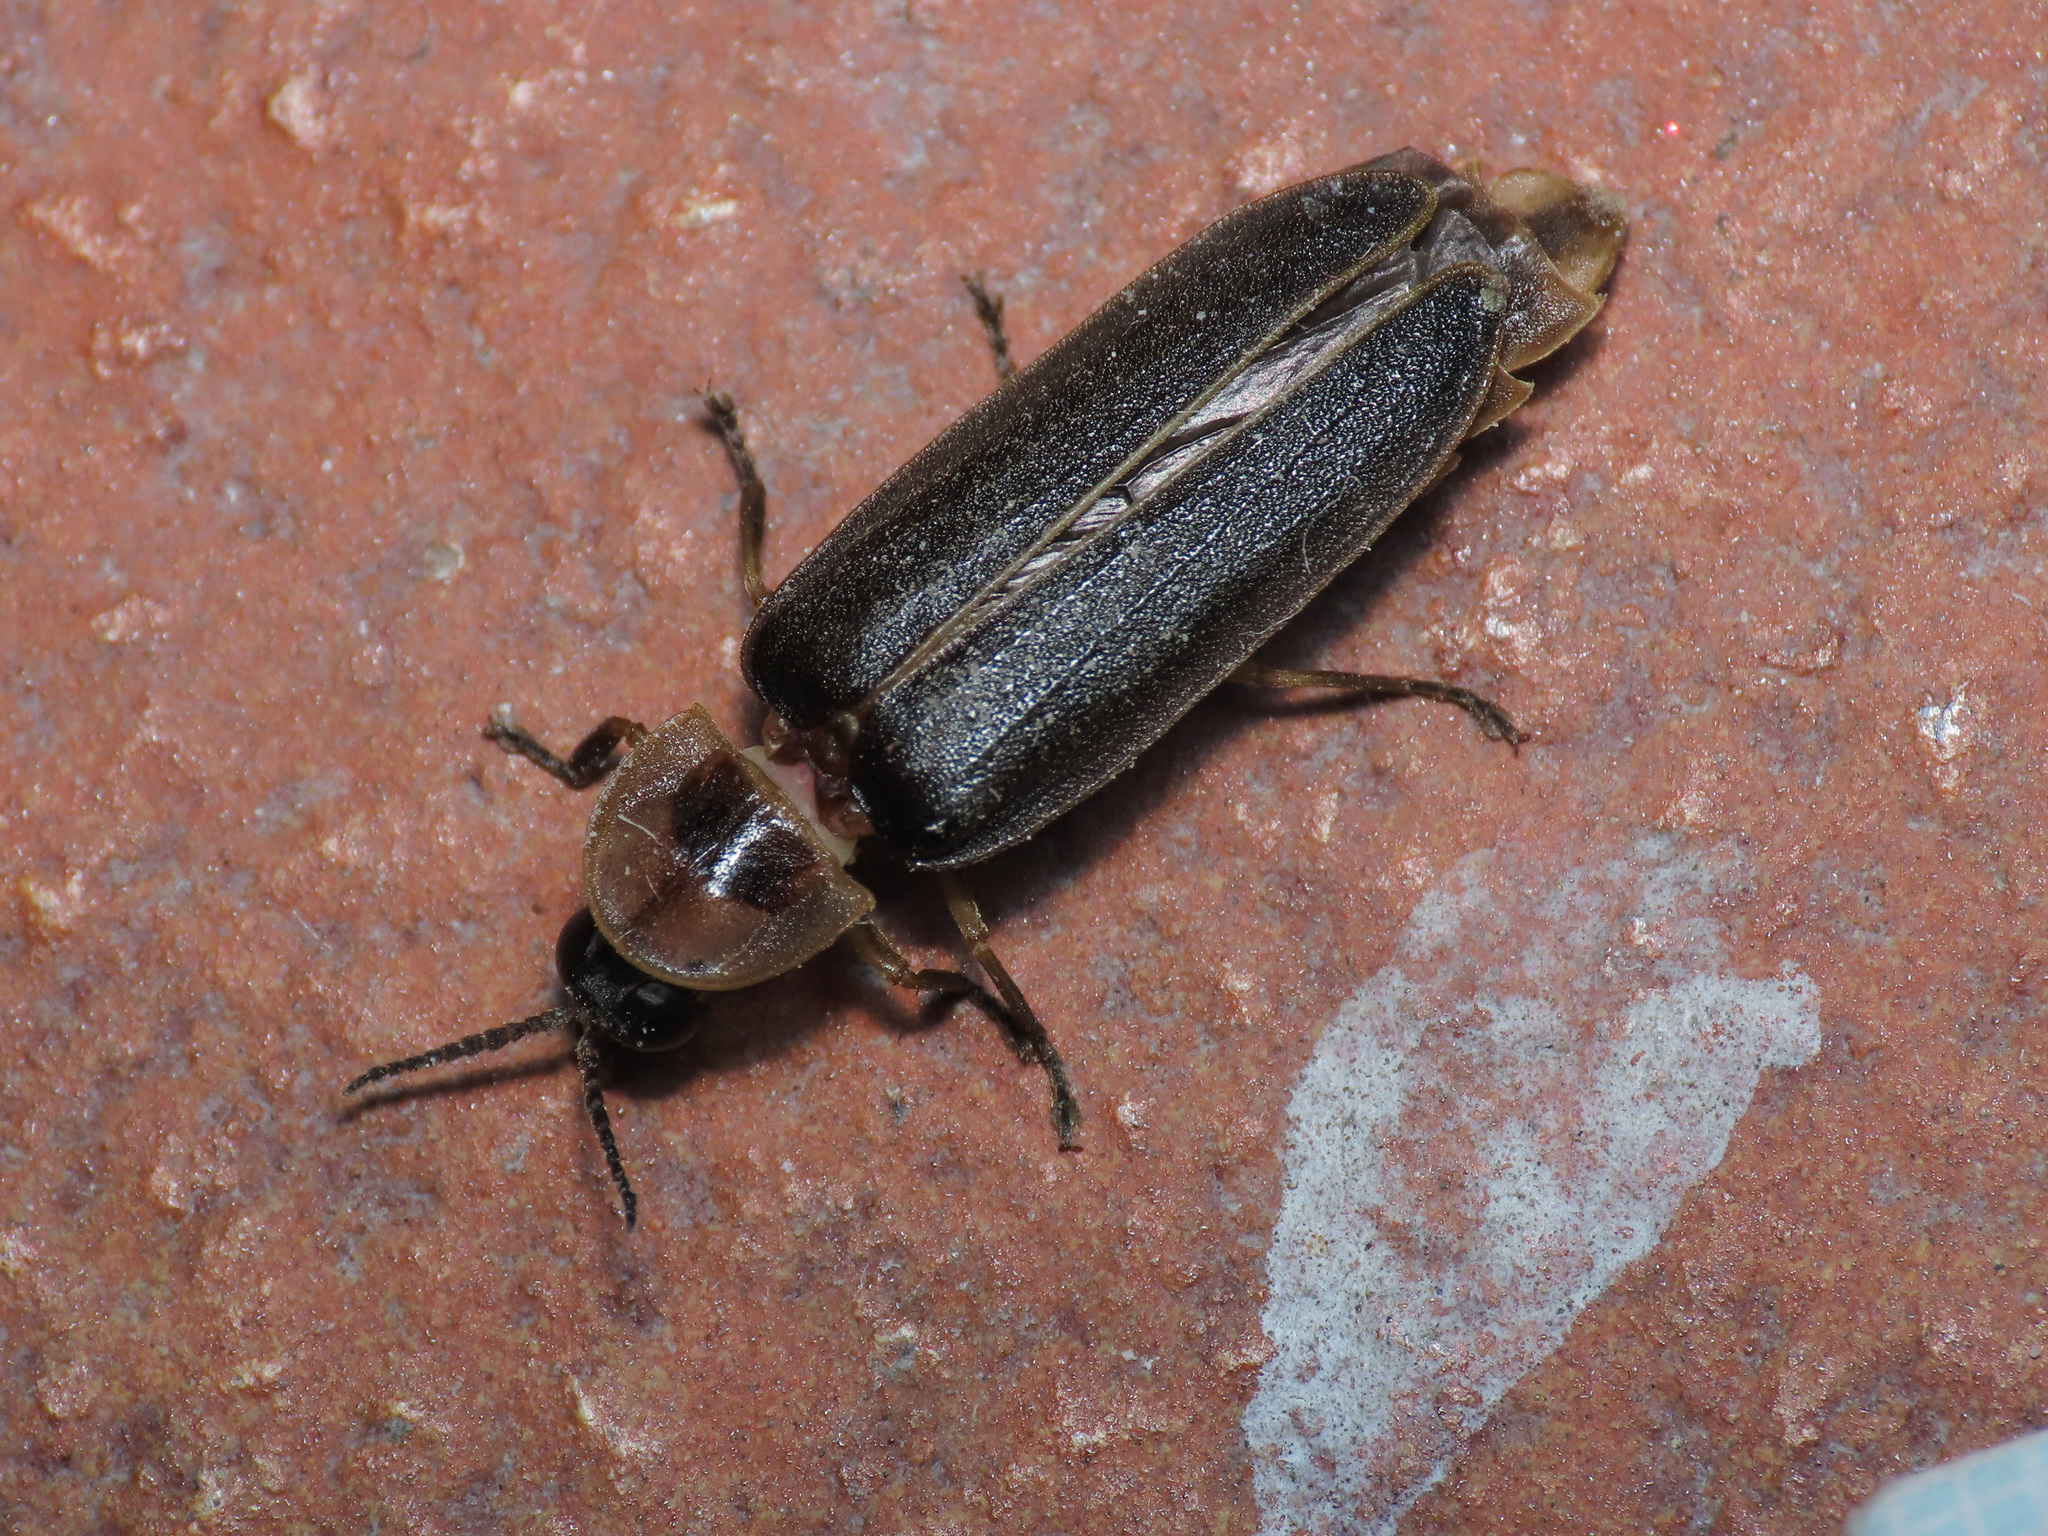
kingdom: Animalia
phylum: Arthropoda
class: Insecta
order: Coleoptera
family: Lampyridae
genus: Lampyris
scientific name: Lampyris fuscata
